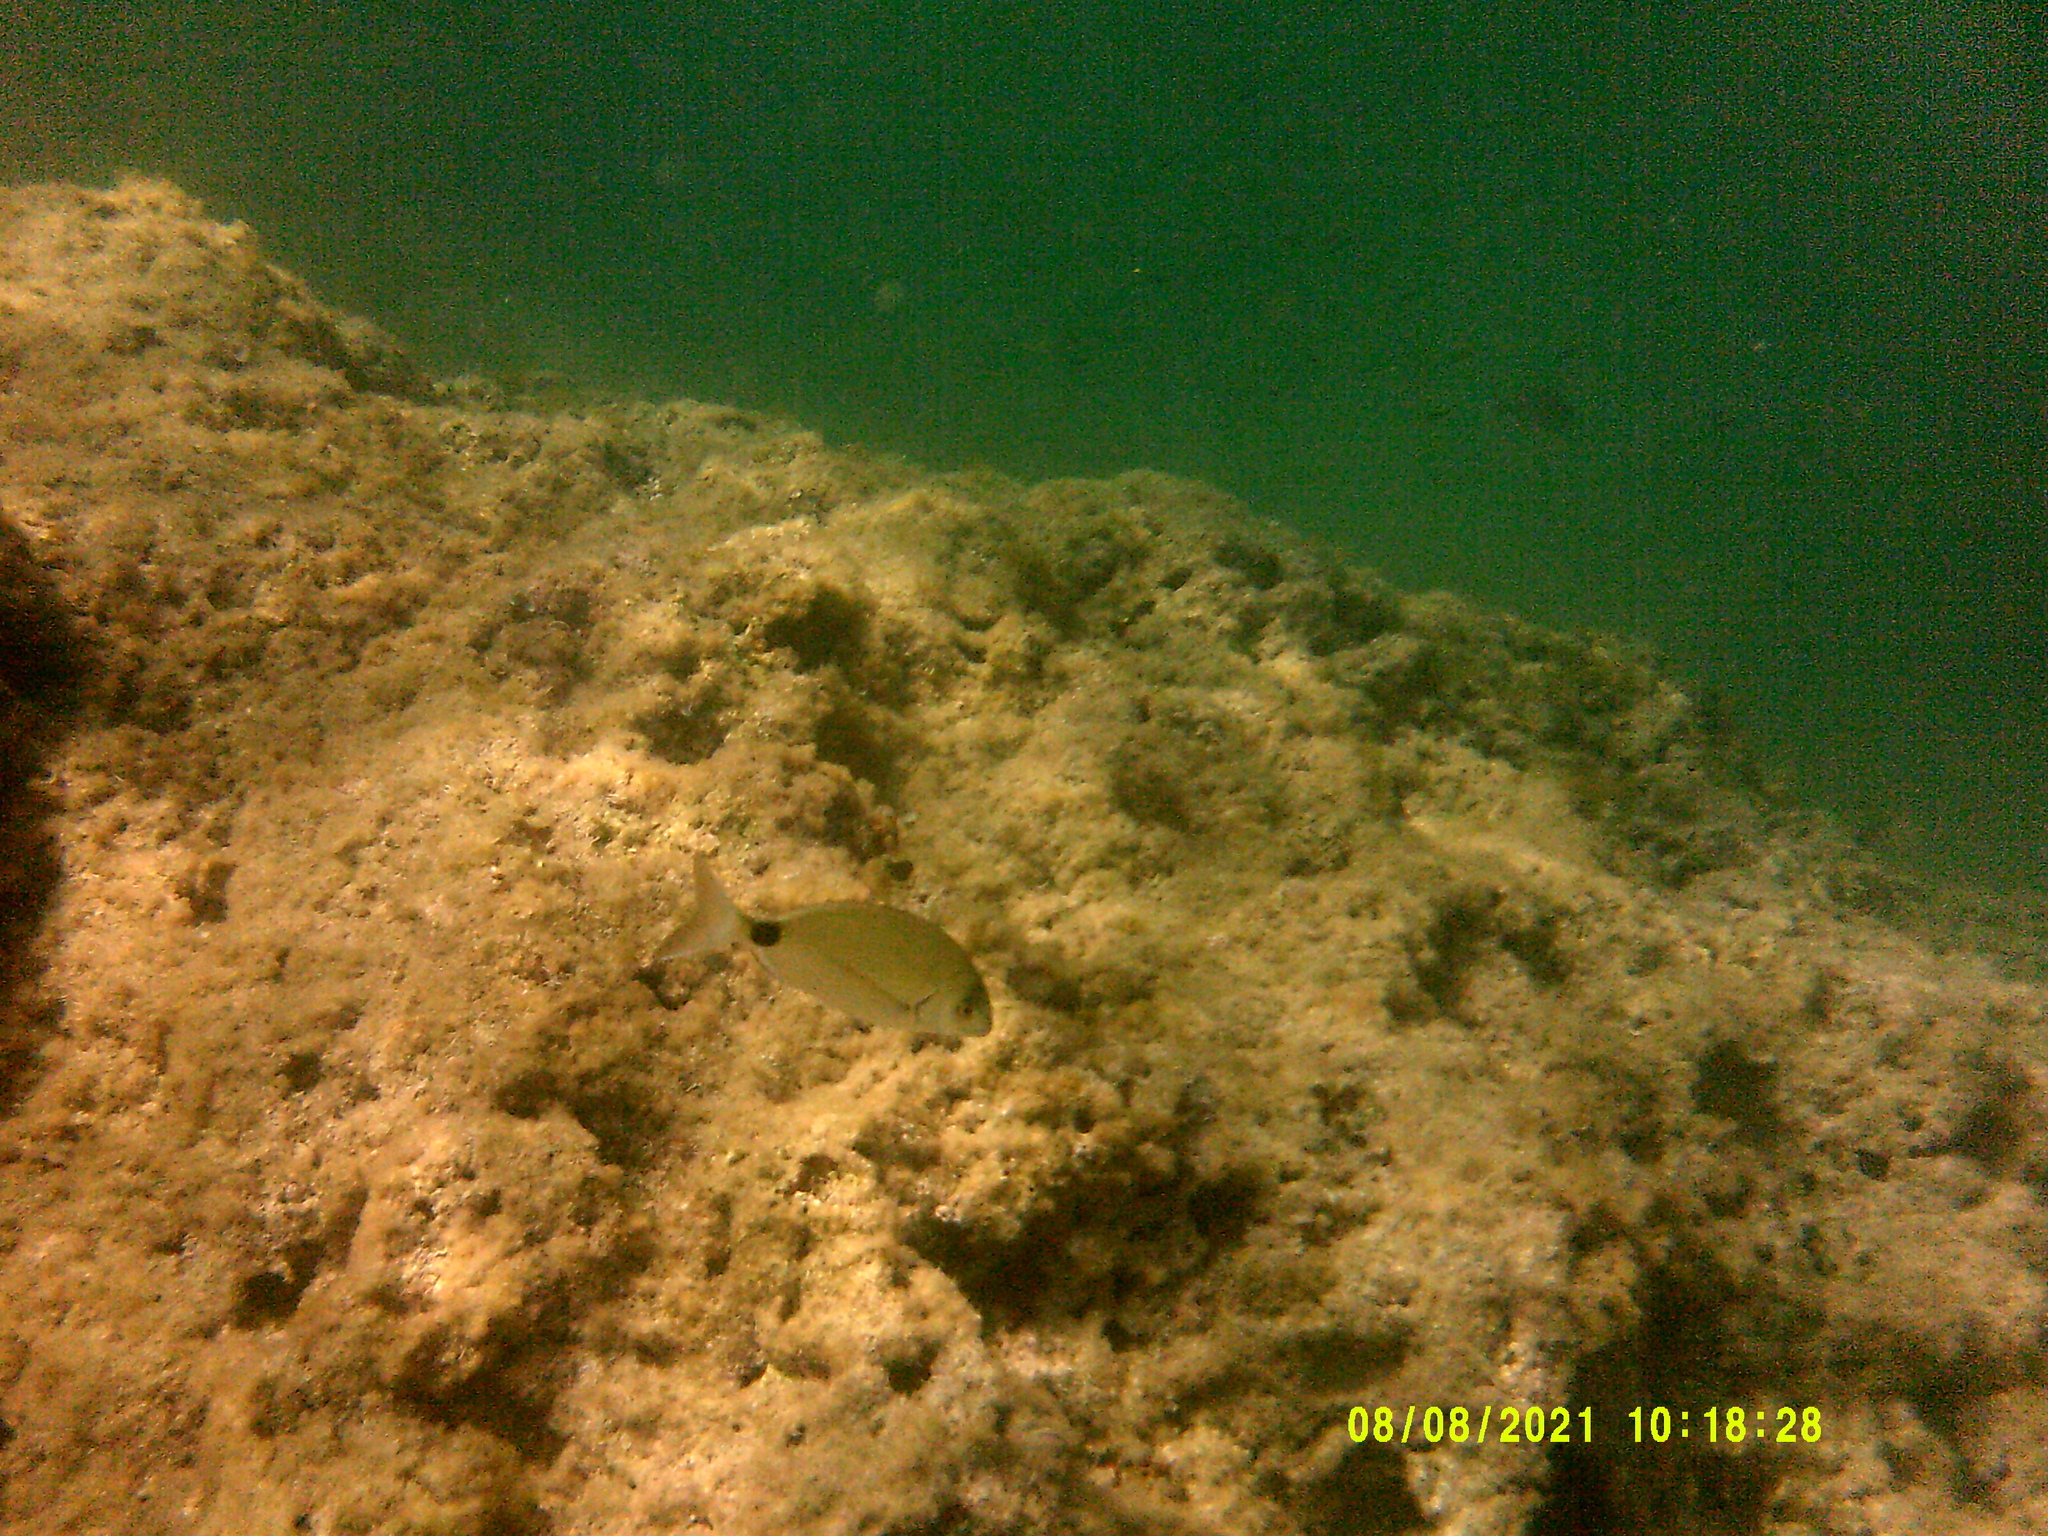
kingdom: Animalia
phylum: Chordata
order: Perciformes
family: Sparidae
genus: Diplodus
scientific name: Diplodus sargus
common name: White seabream
